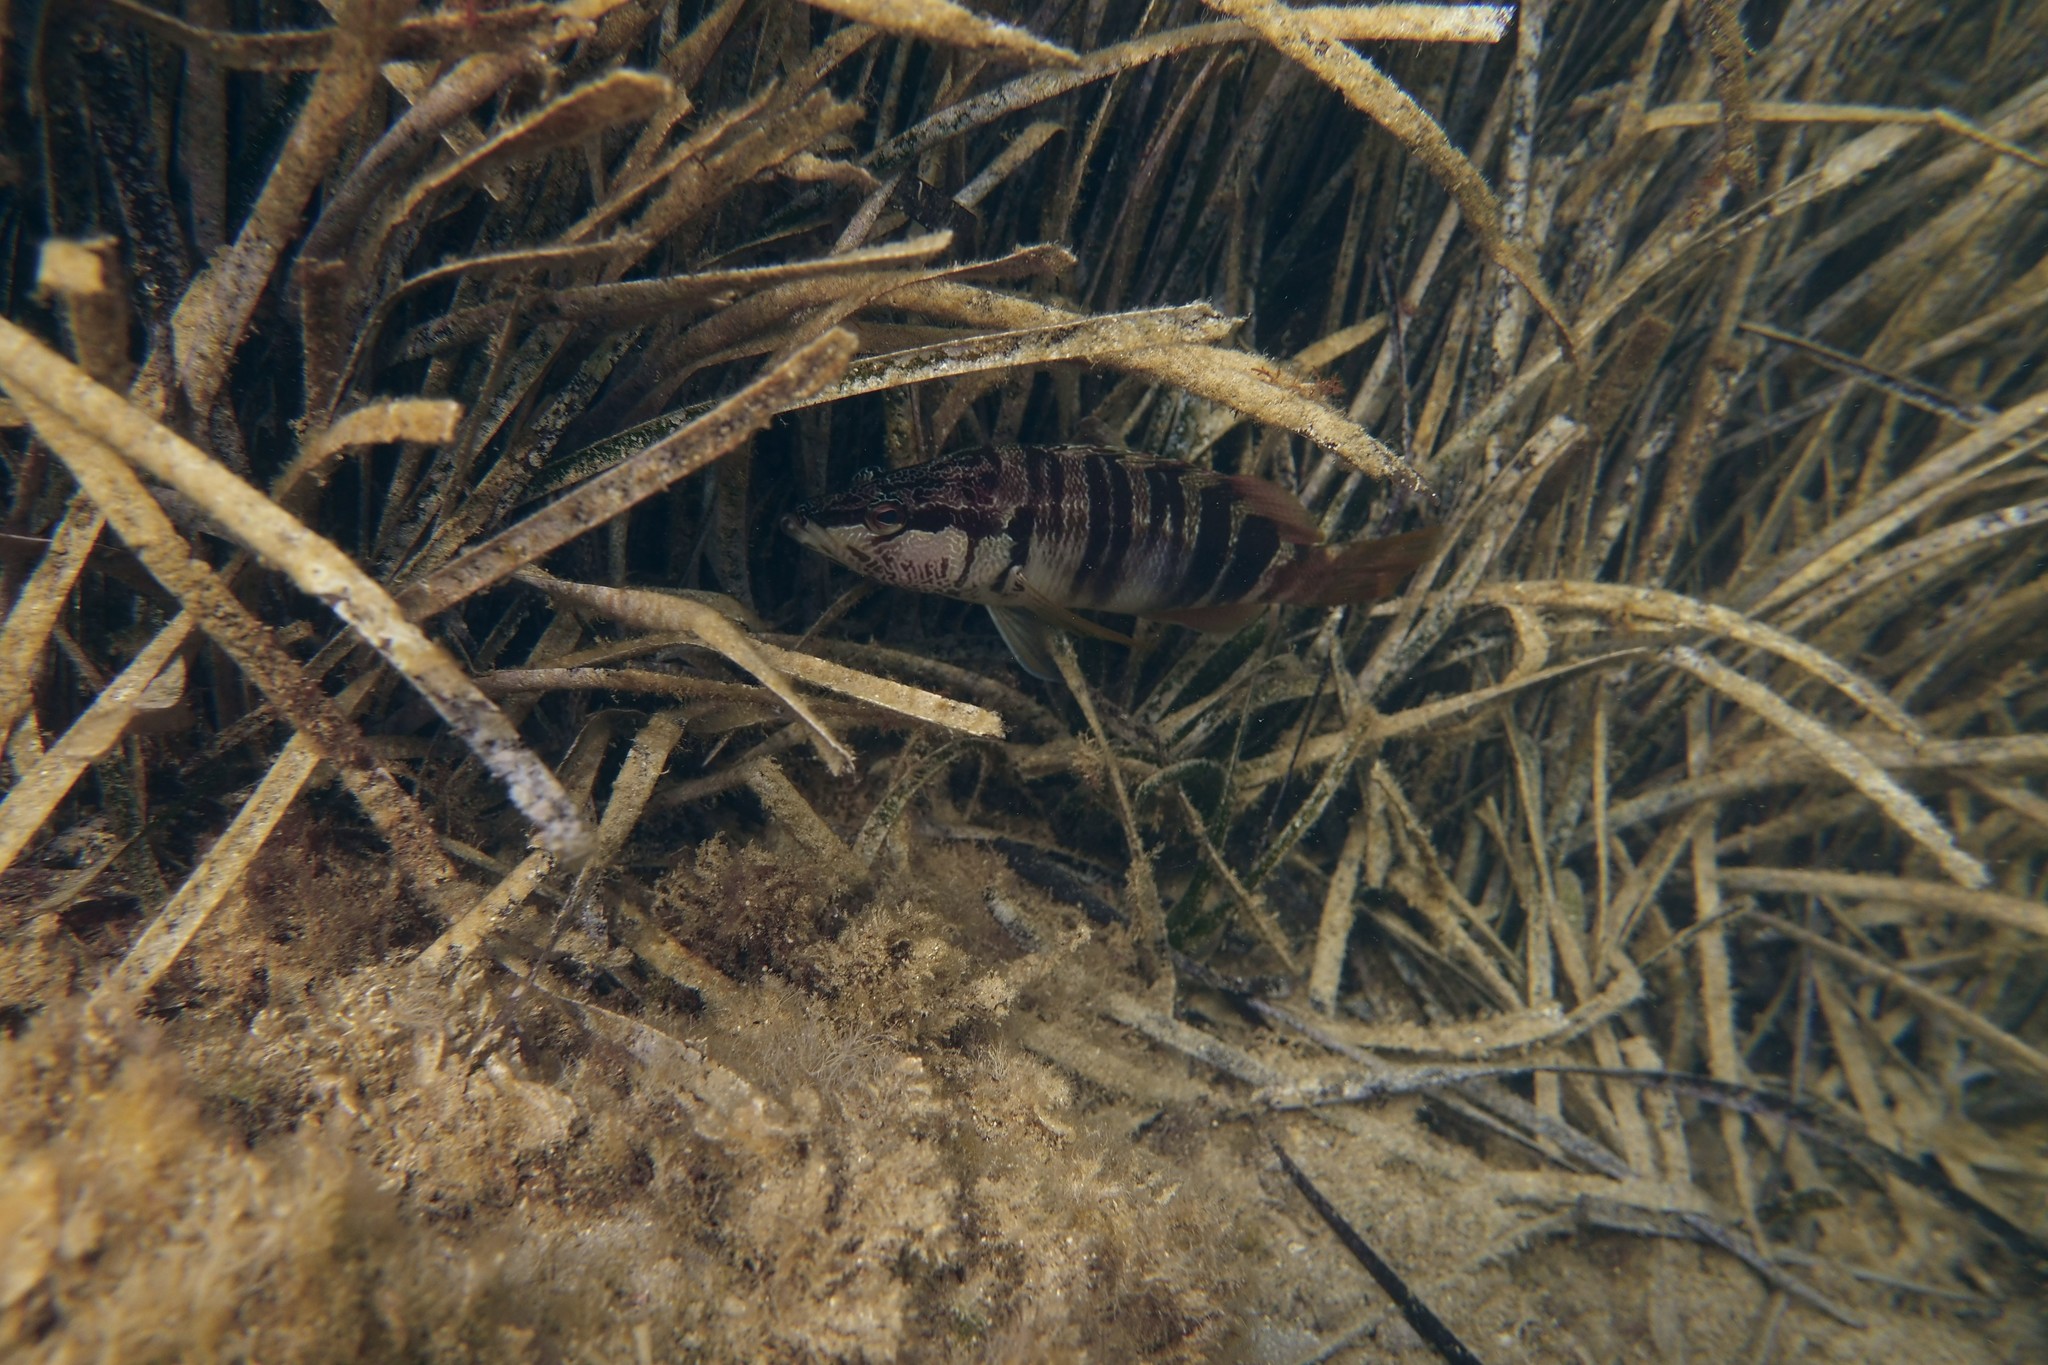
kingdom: Animalia
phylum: Chordata
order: Perciformes
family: Serranidae
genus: Serranus
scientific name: Serranus scriba
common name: Painted comber
